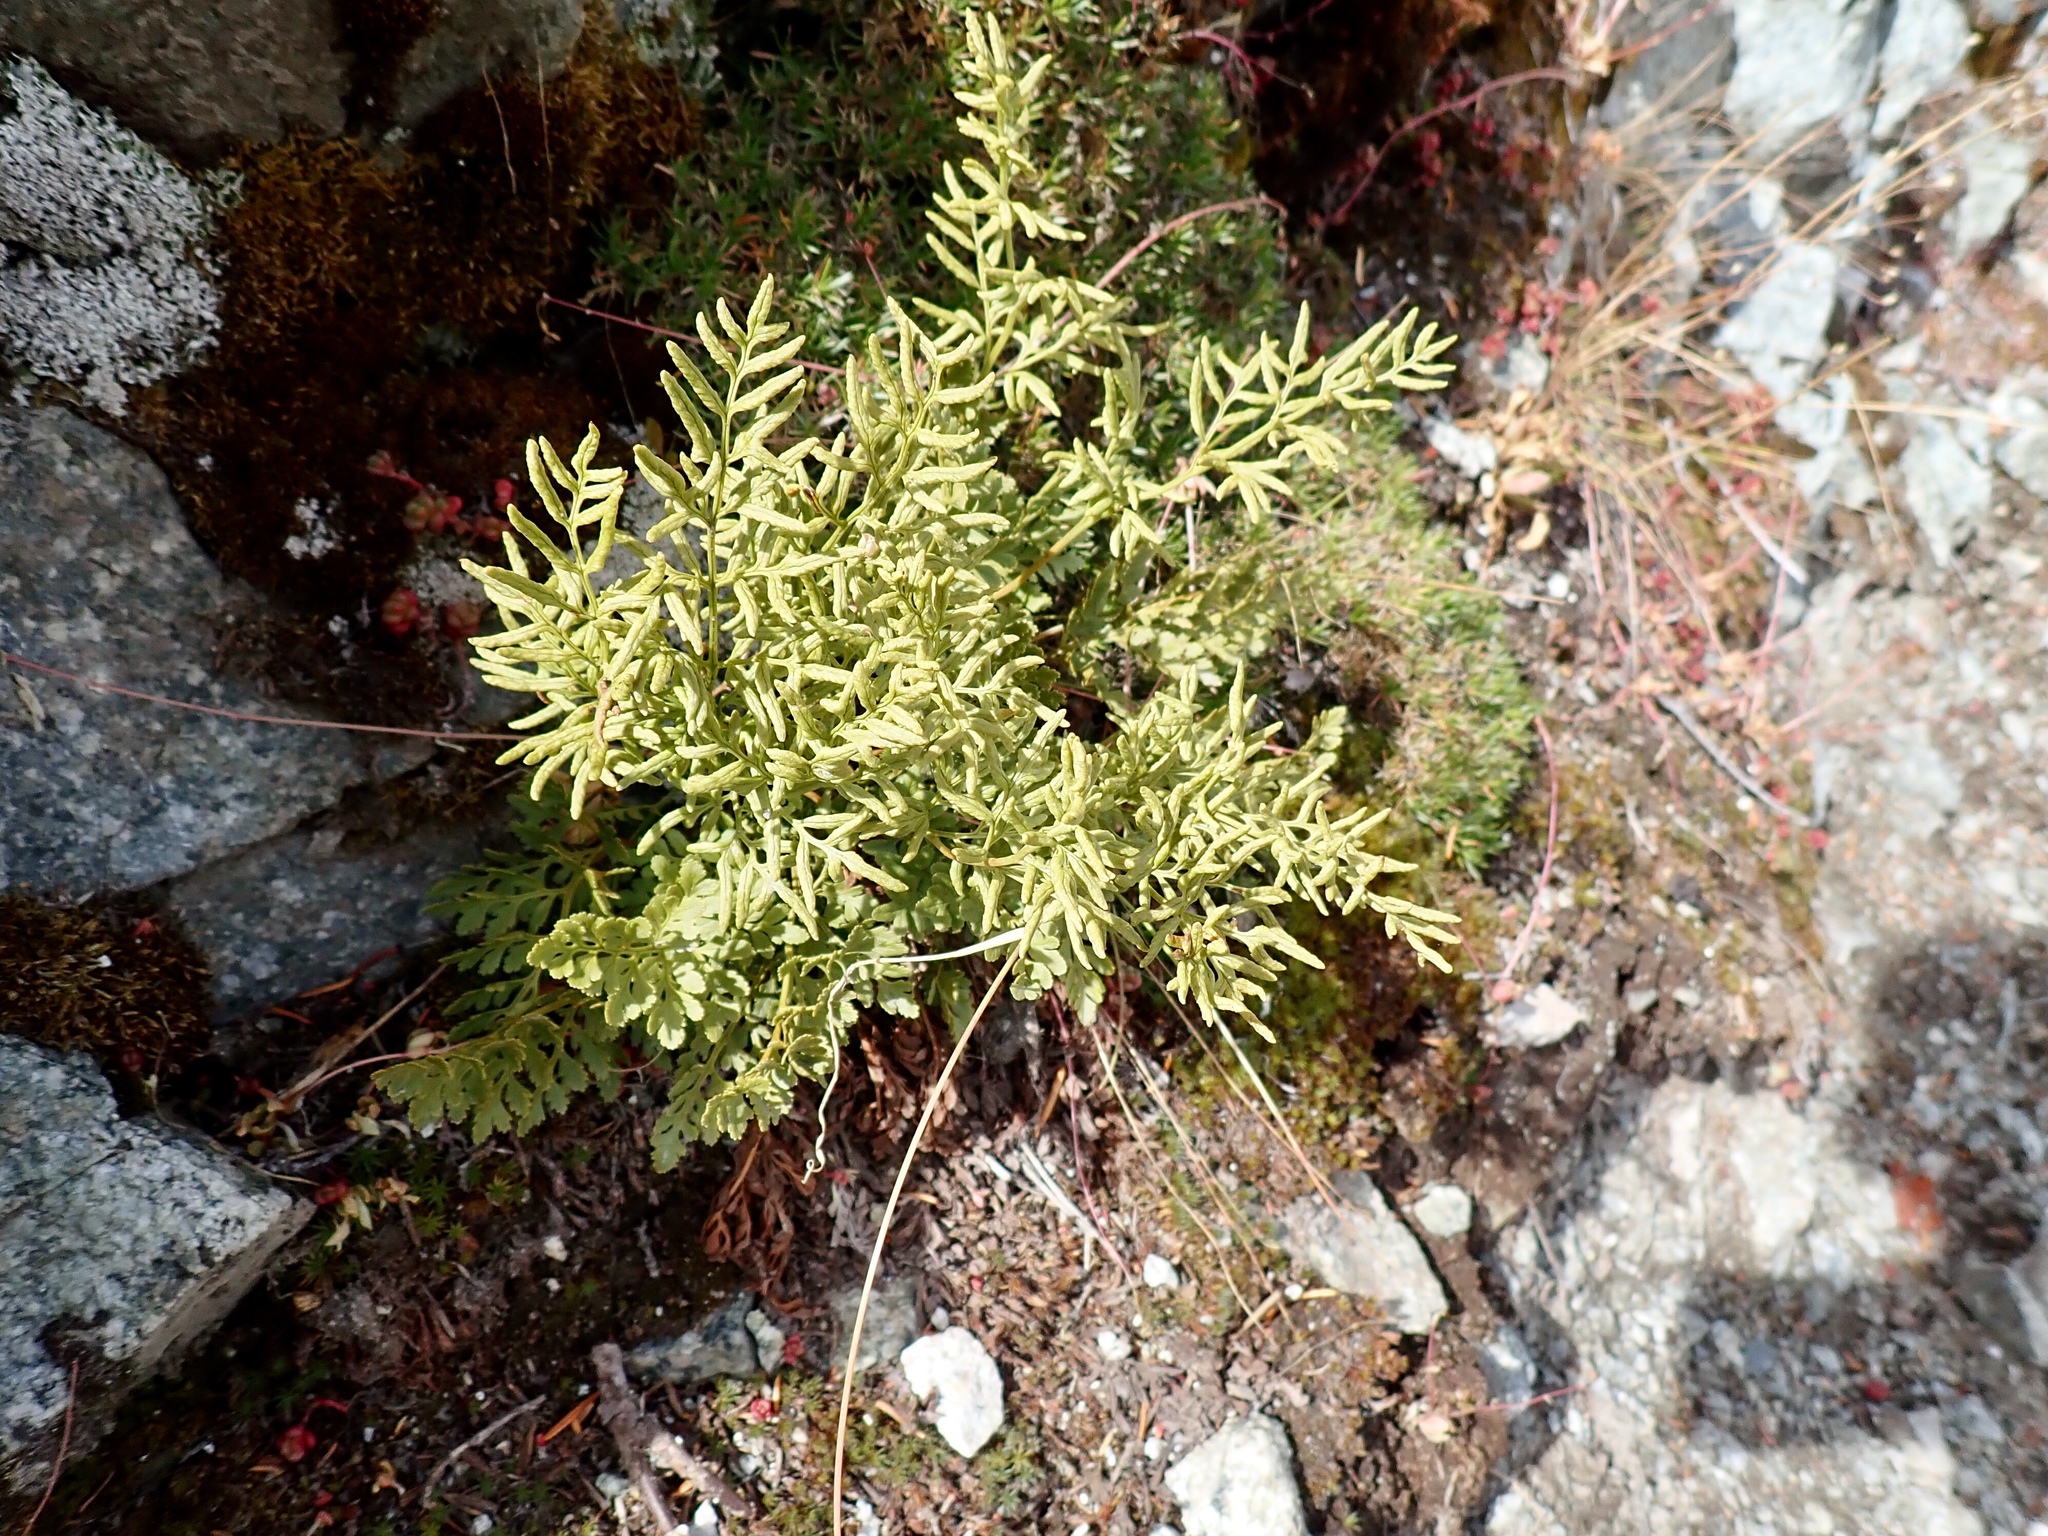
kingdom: Plantae
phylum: Tracheophyta
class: Polypodiopsida
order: Polypodiales
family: Pteridaceae
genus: Cryptogramma
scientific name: Cryptogramma acrostichoides
